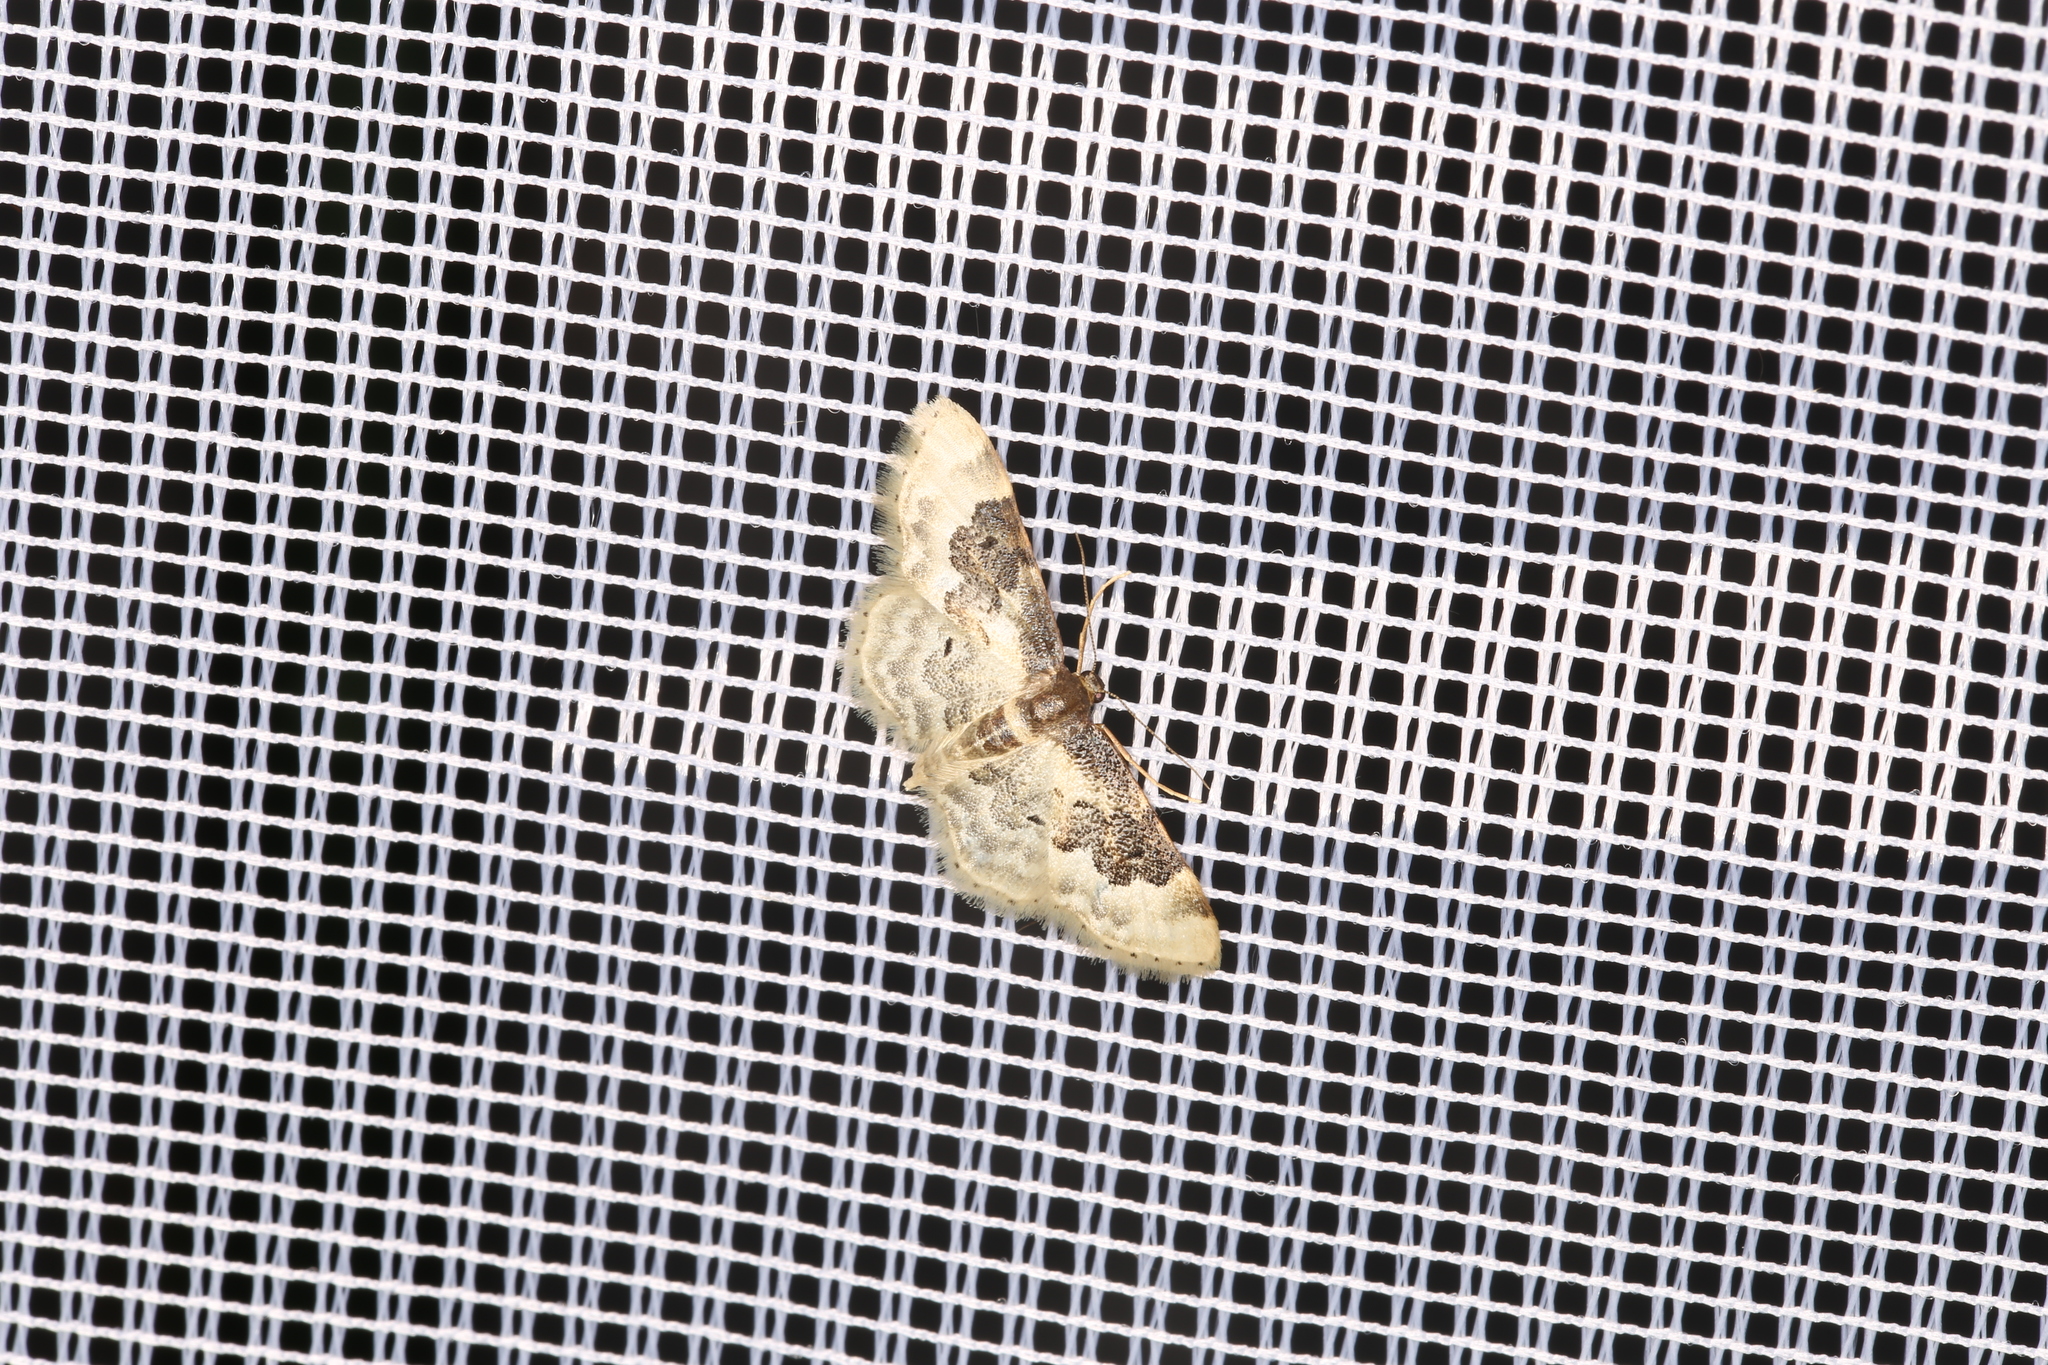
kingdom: Animalia
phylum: Arthropoda
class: Insecta
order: Lepidoptera
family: Geometridae
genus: Idaea
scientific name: Idaea rusticata
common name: Least carpet
